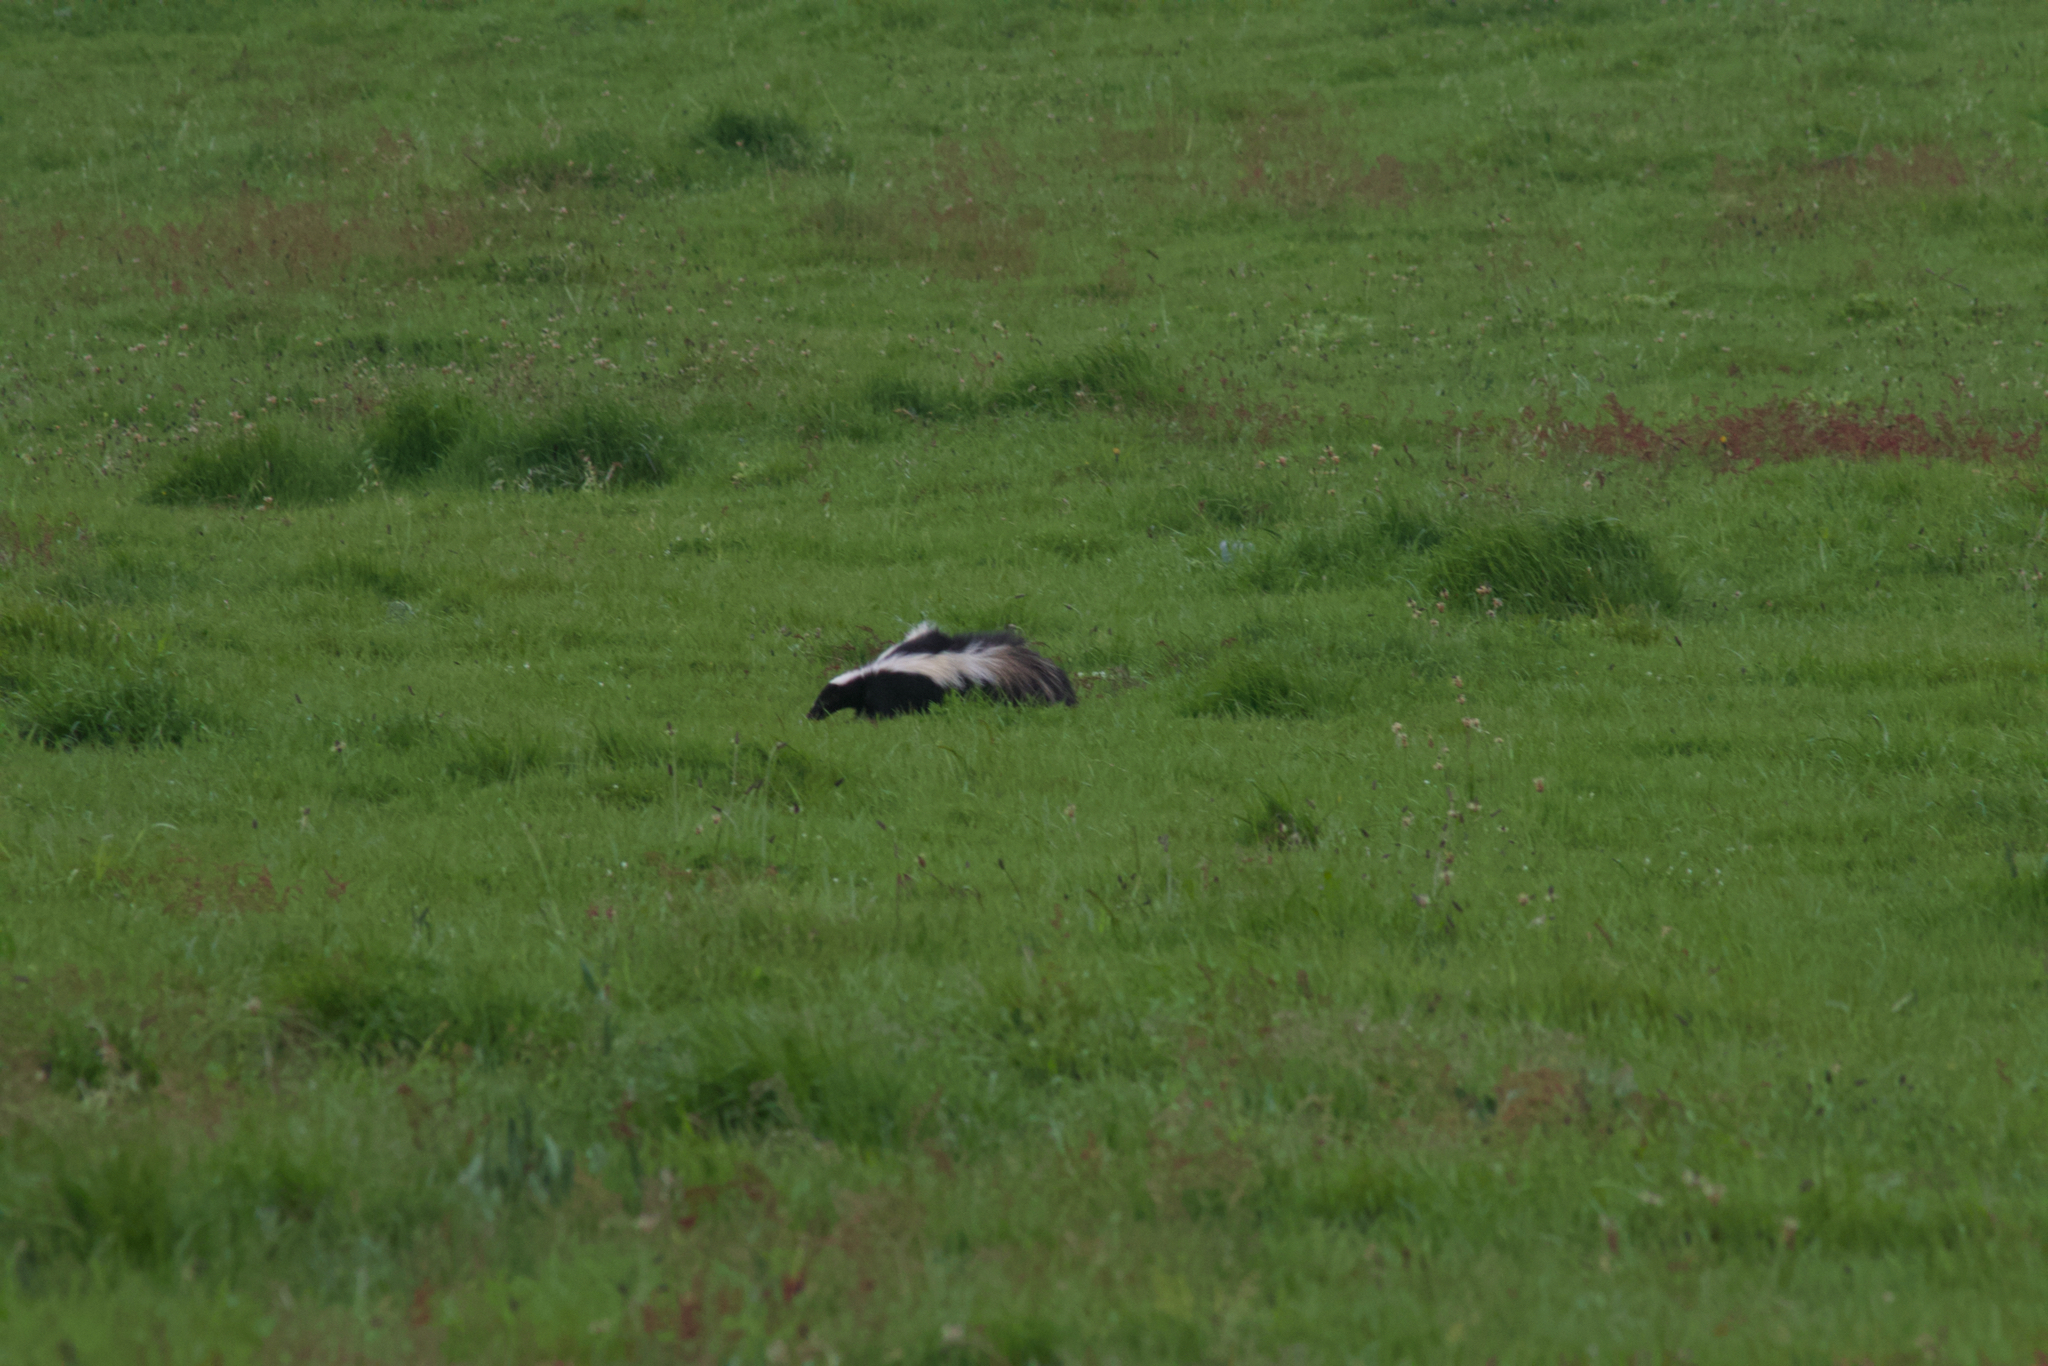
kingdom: Animalia
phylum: Chordata
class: Mammalia
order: Carnivora
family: Mephitidae
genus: Mephitis
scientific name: Mephitis mephitis
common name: Striped skunk
